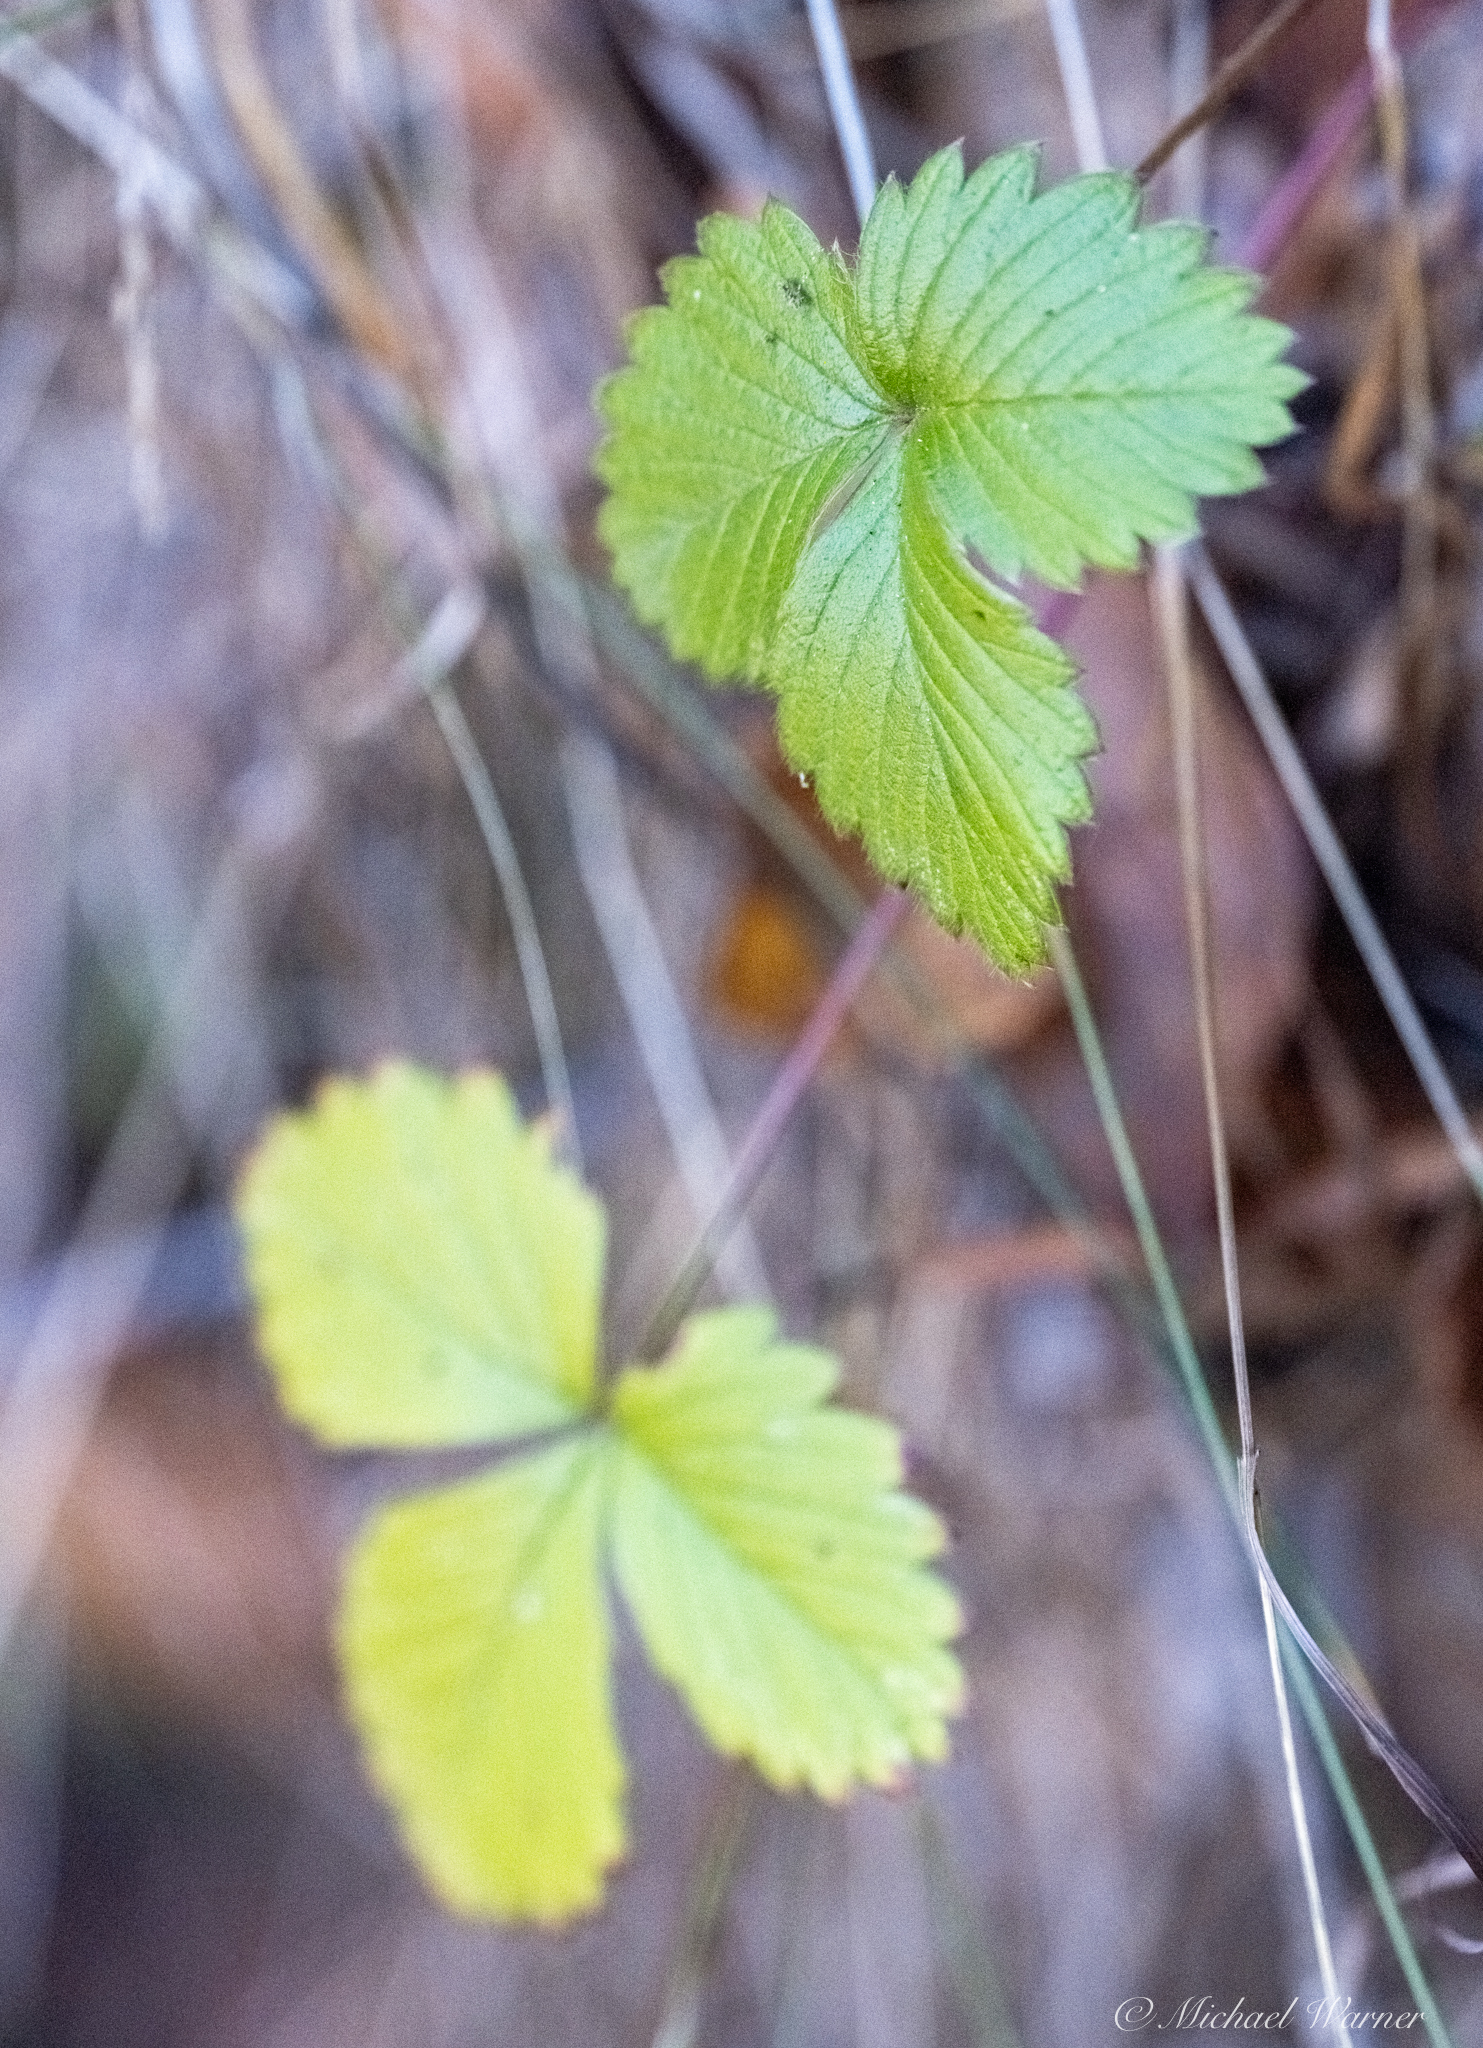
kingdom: Plantae
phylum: Tracheophyta
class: Magnoliopsida
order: Rosales
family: Rosaceae
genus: Fragaria
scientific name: Fragaria vesca
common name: Wild strawberry
